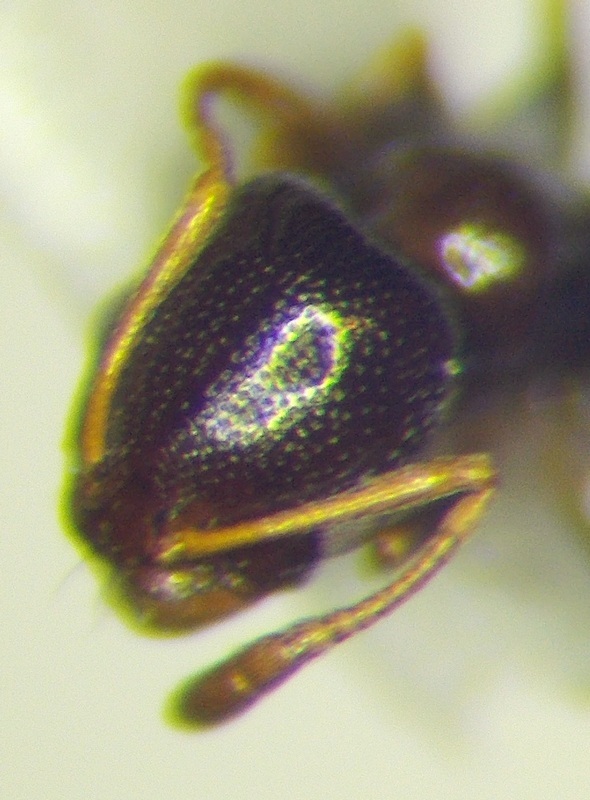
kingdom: Animalia
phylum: Arthropoda
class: Insecta
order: Hymenoptera
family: Formicidae
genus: Cardiocondyla
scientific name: Cardiocondyla ulianini
